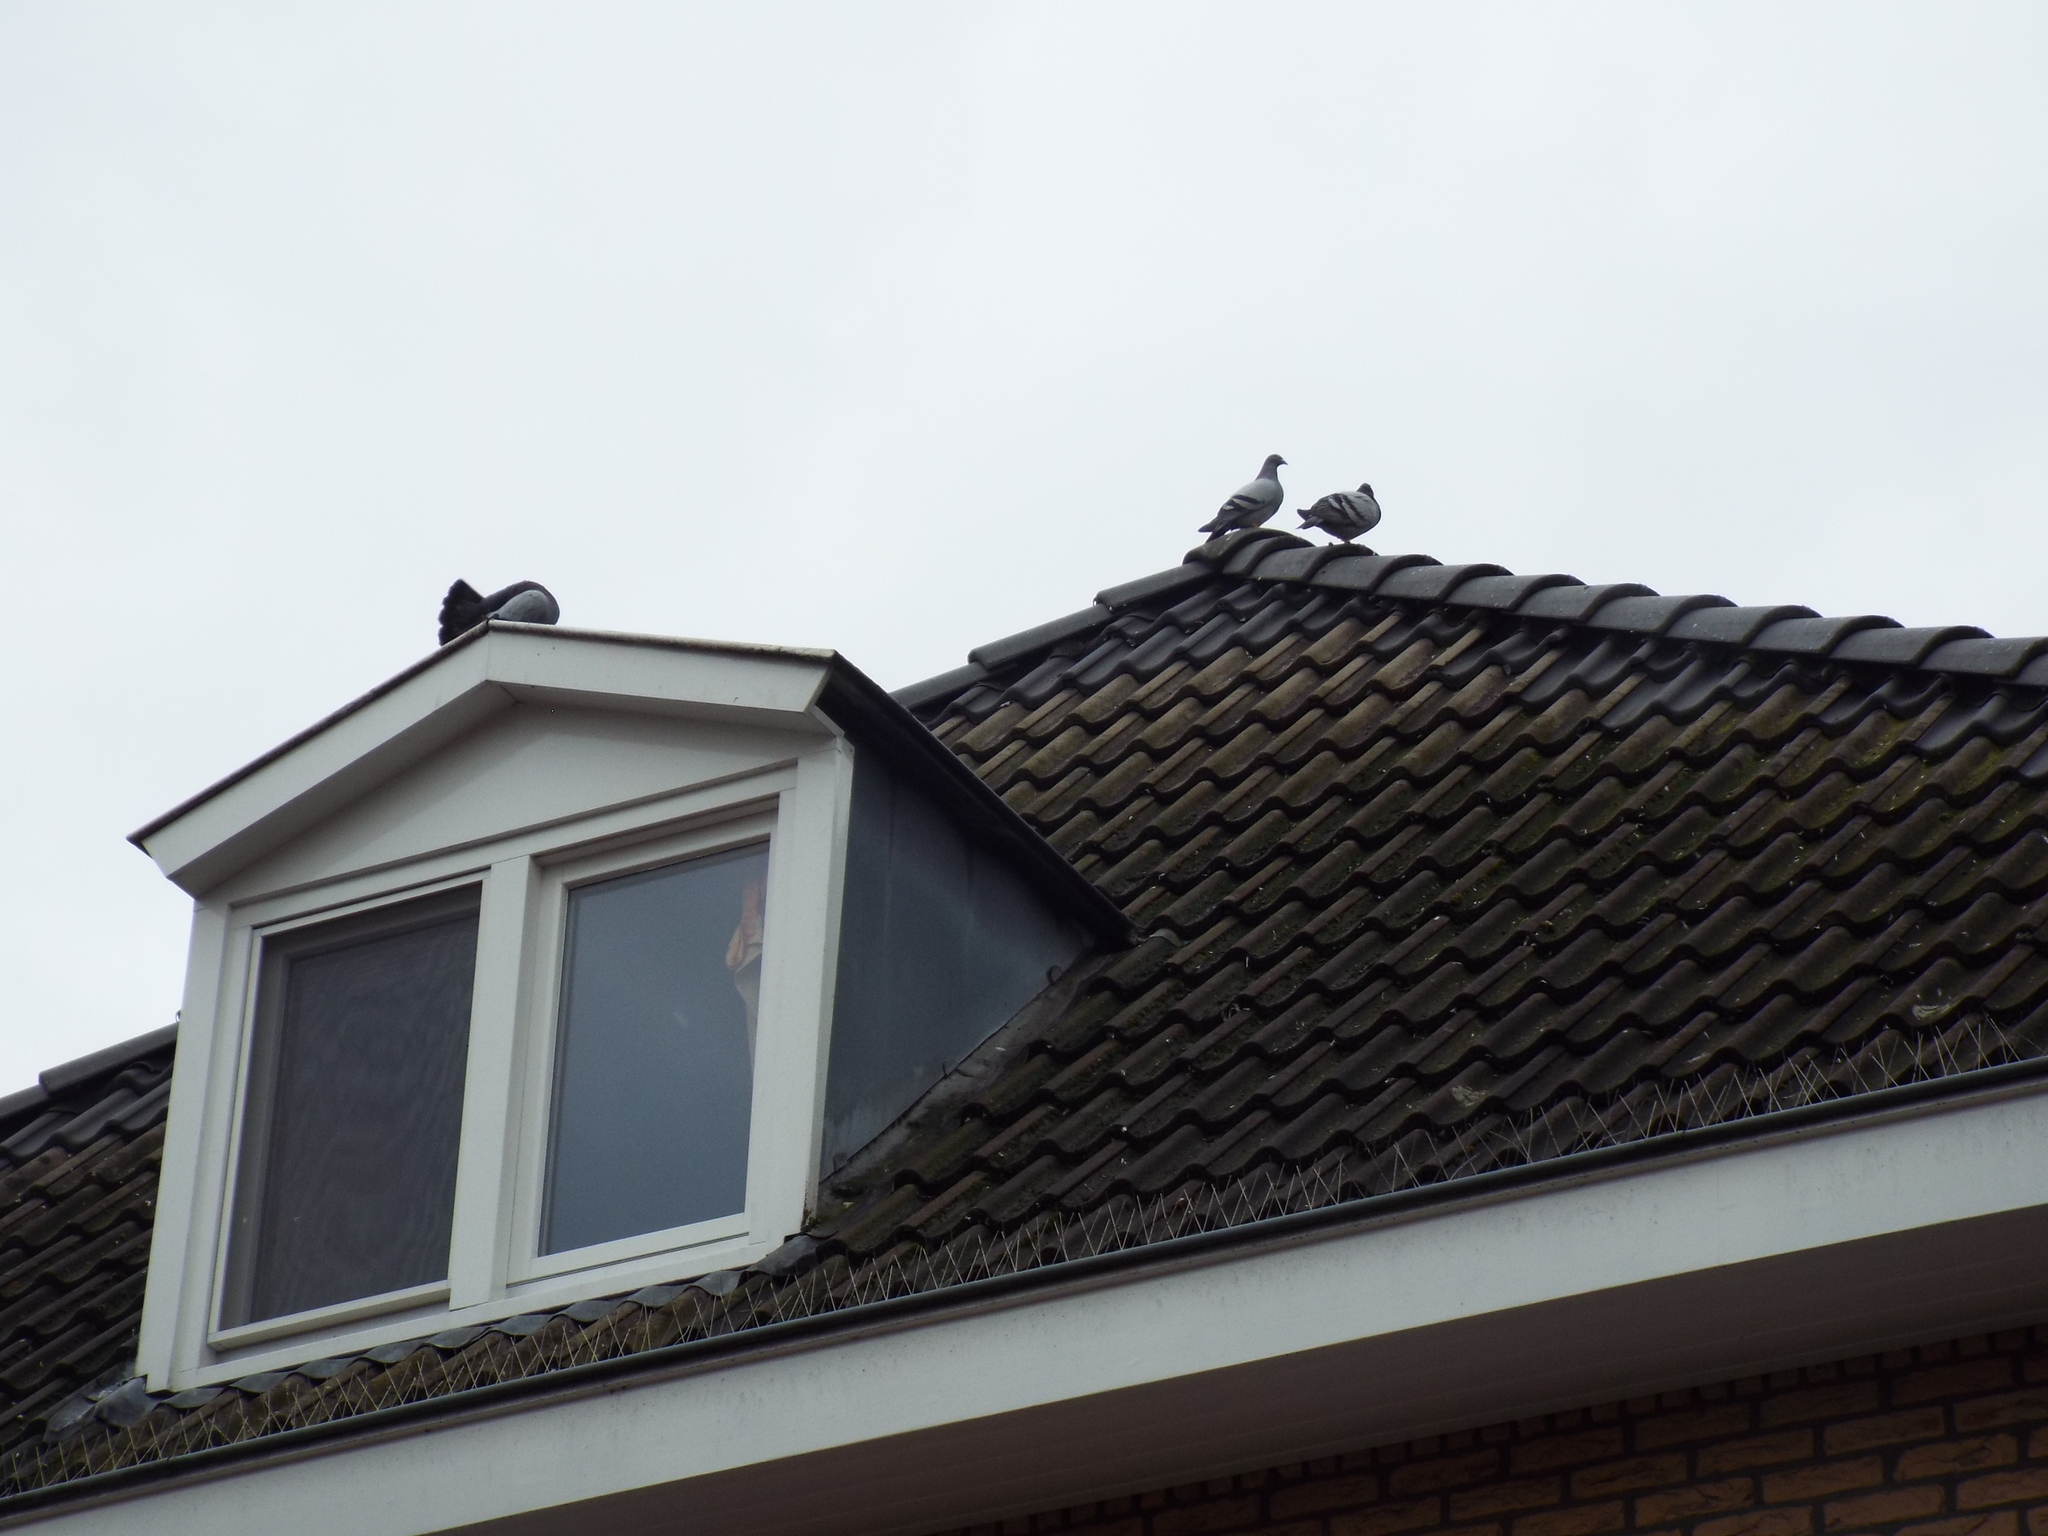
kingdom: Animalia
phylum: Chordata
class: Aves
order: Columbiformes
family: Columbidae
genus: Columba
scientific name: Columba livia
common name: Rock pigeon
